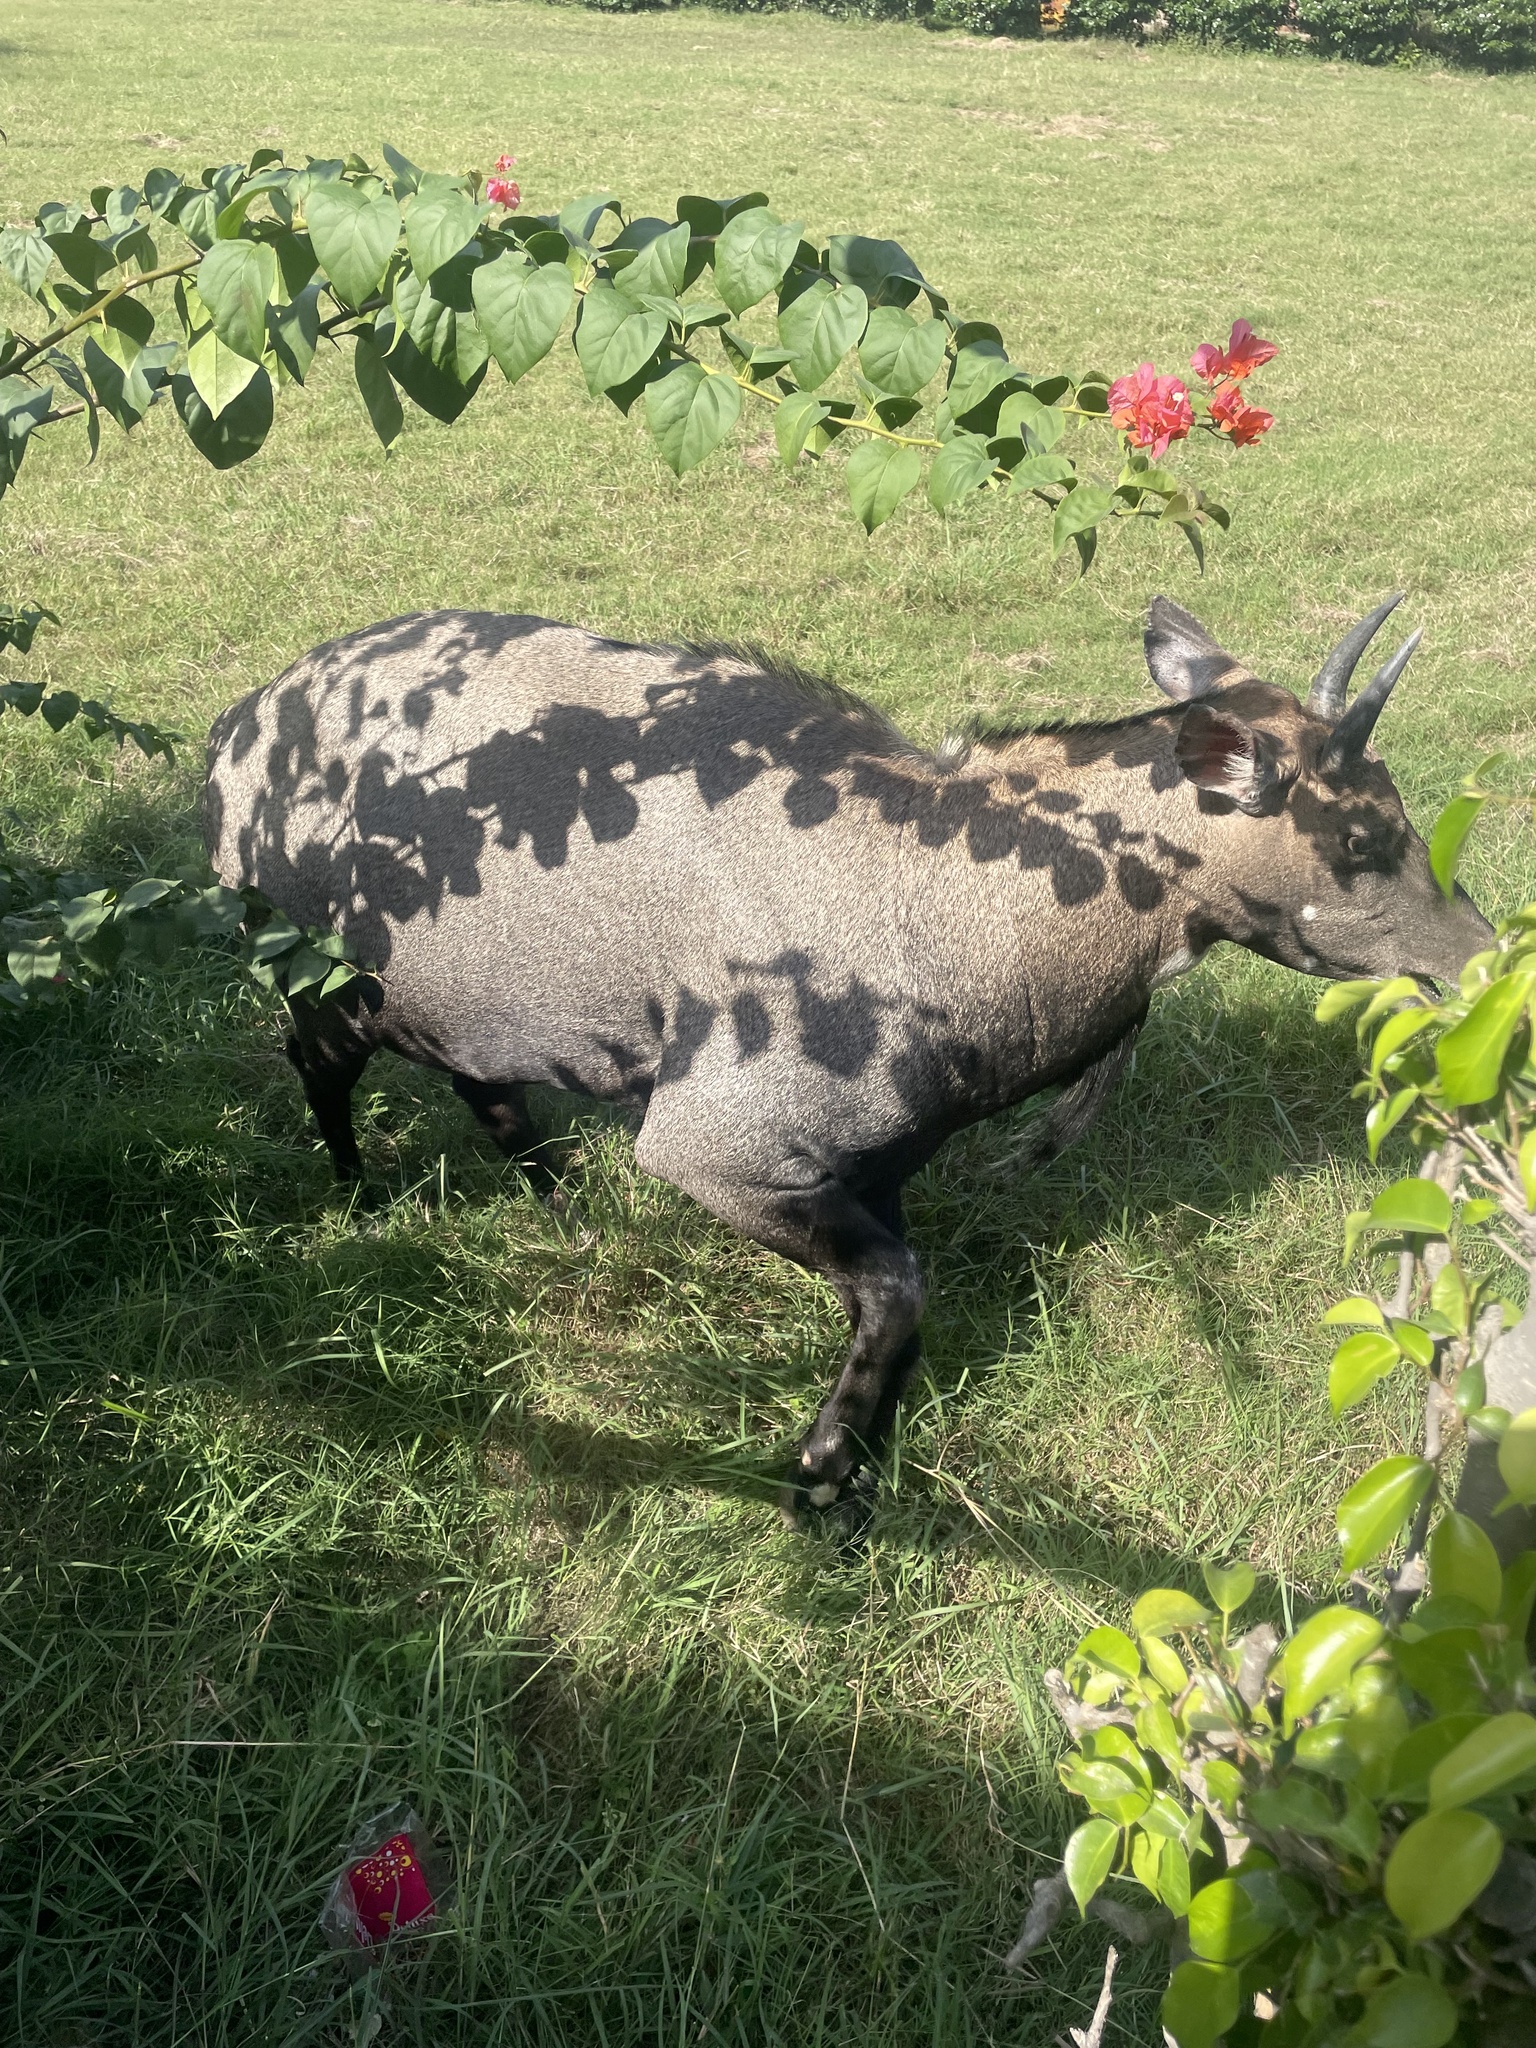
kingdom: Animalia
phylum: Chordata
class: Mammalia
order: Artiodactyla
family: Bovidae
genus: Boselaphus
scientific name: Boselaphus tragocamelus
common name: Nilgai
